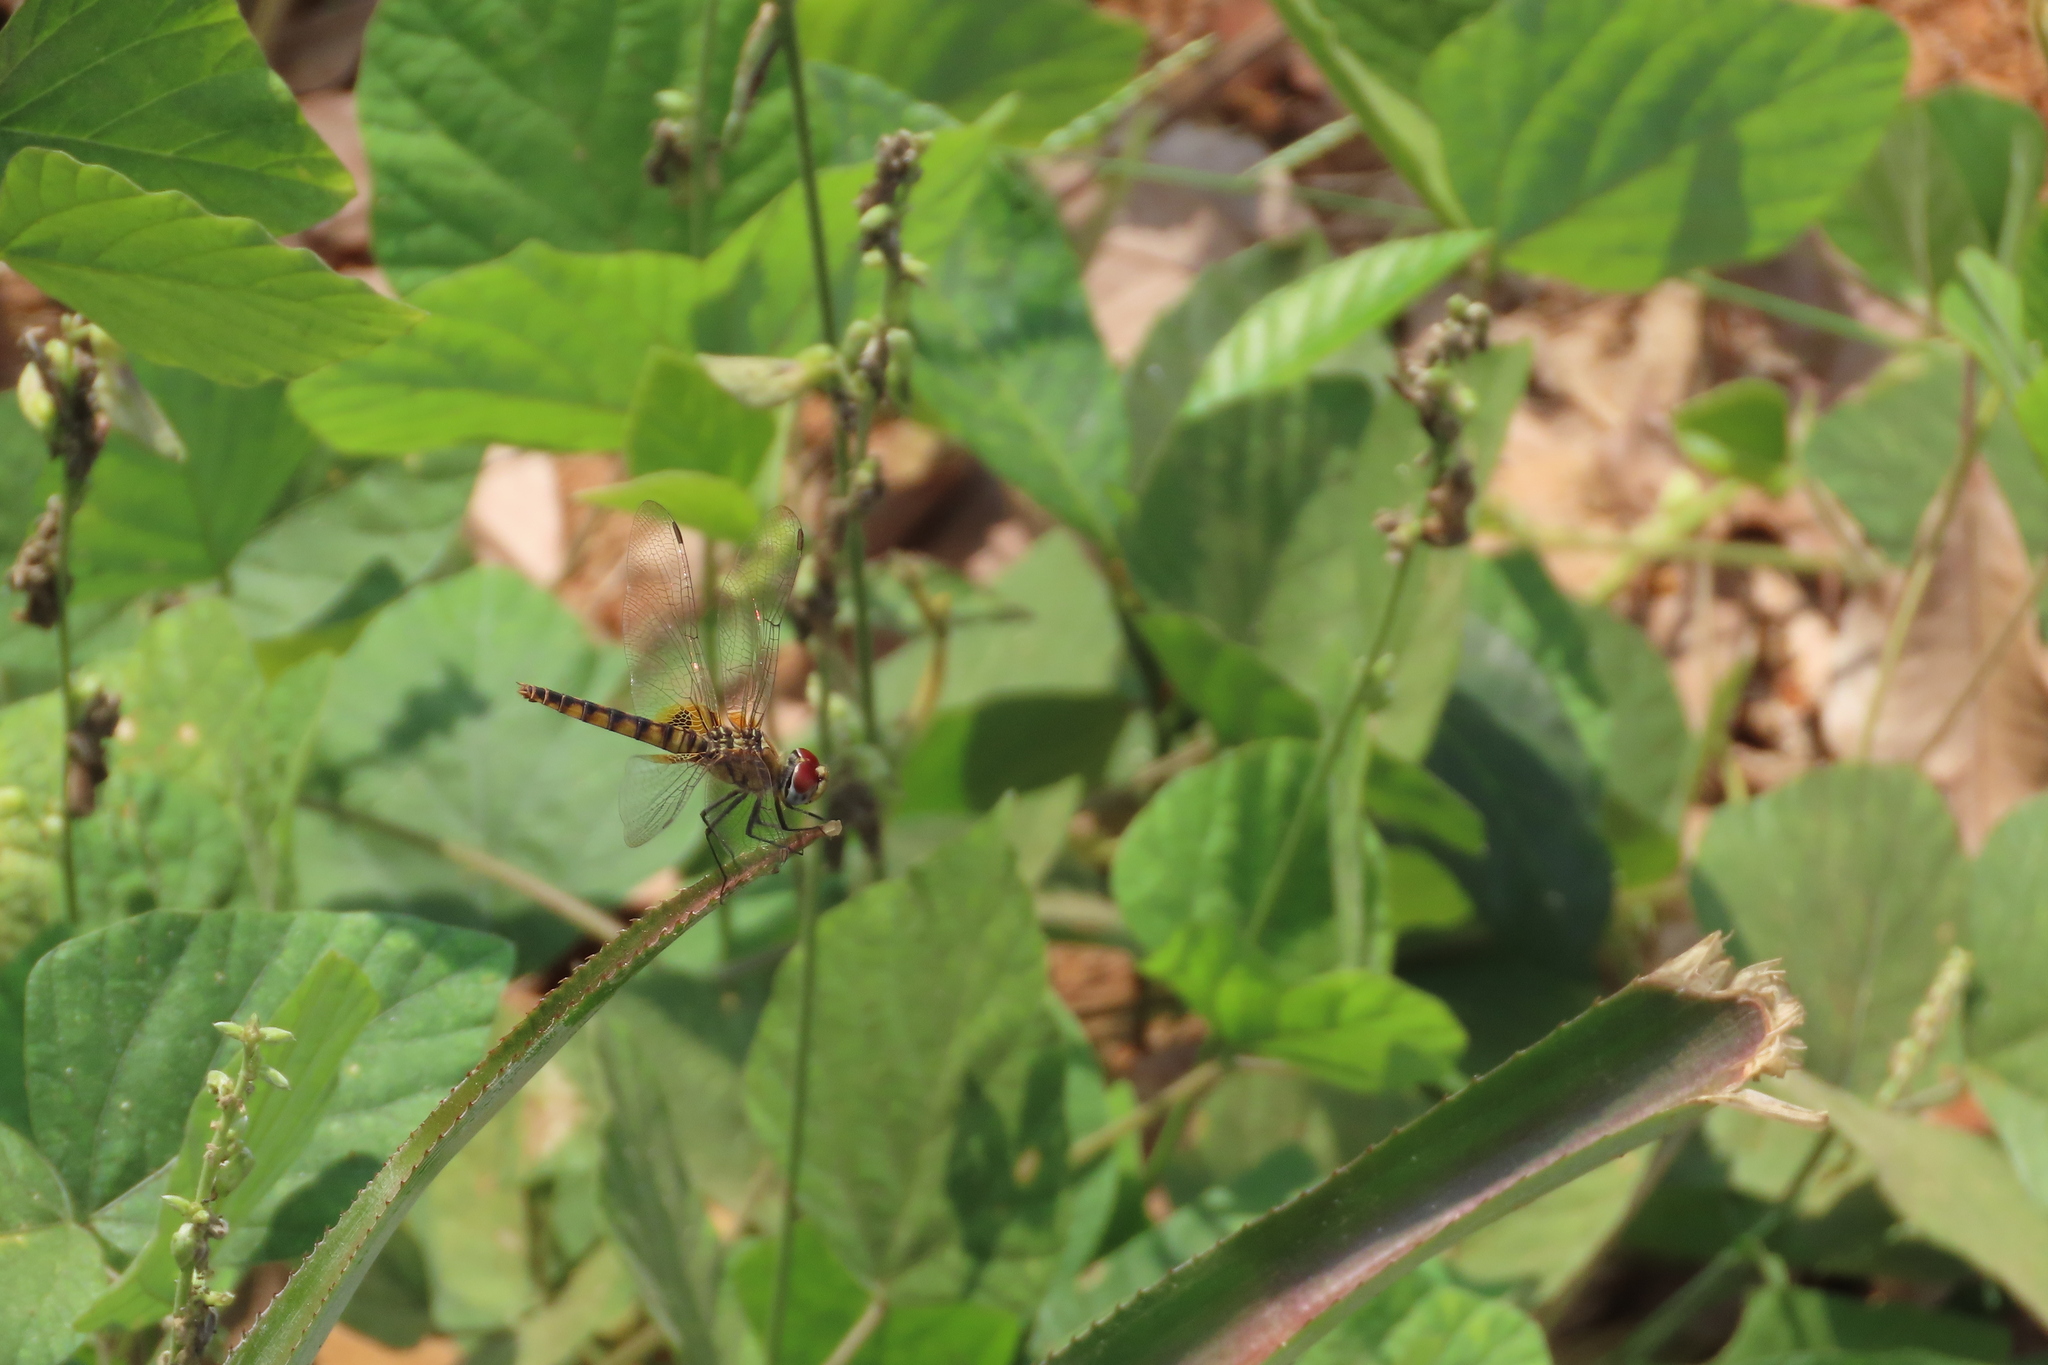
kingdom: Animalia
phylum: Arthropoda
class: Insecta
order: Odonata
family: Libellulidae
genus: Urothemis
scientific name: Urothemis signata
